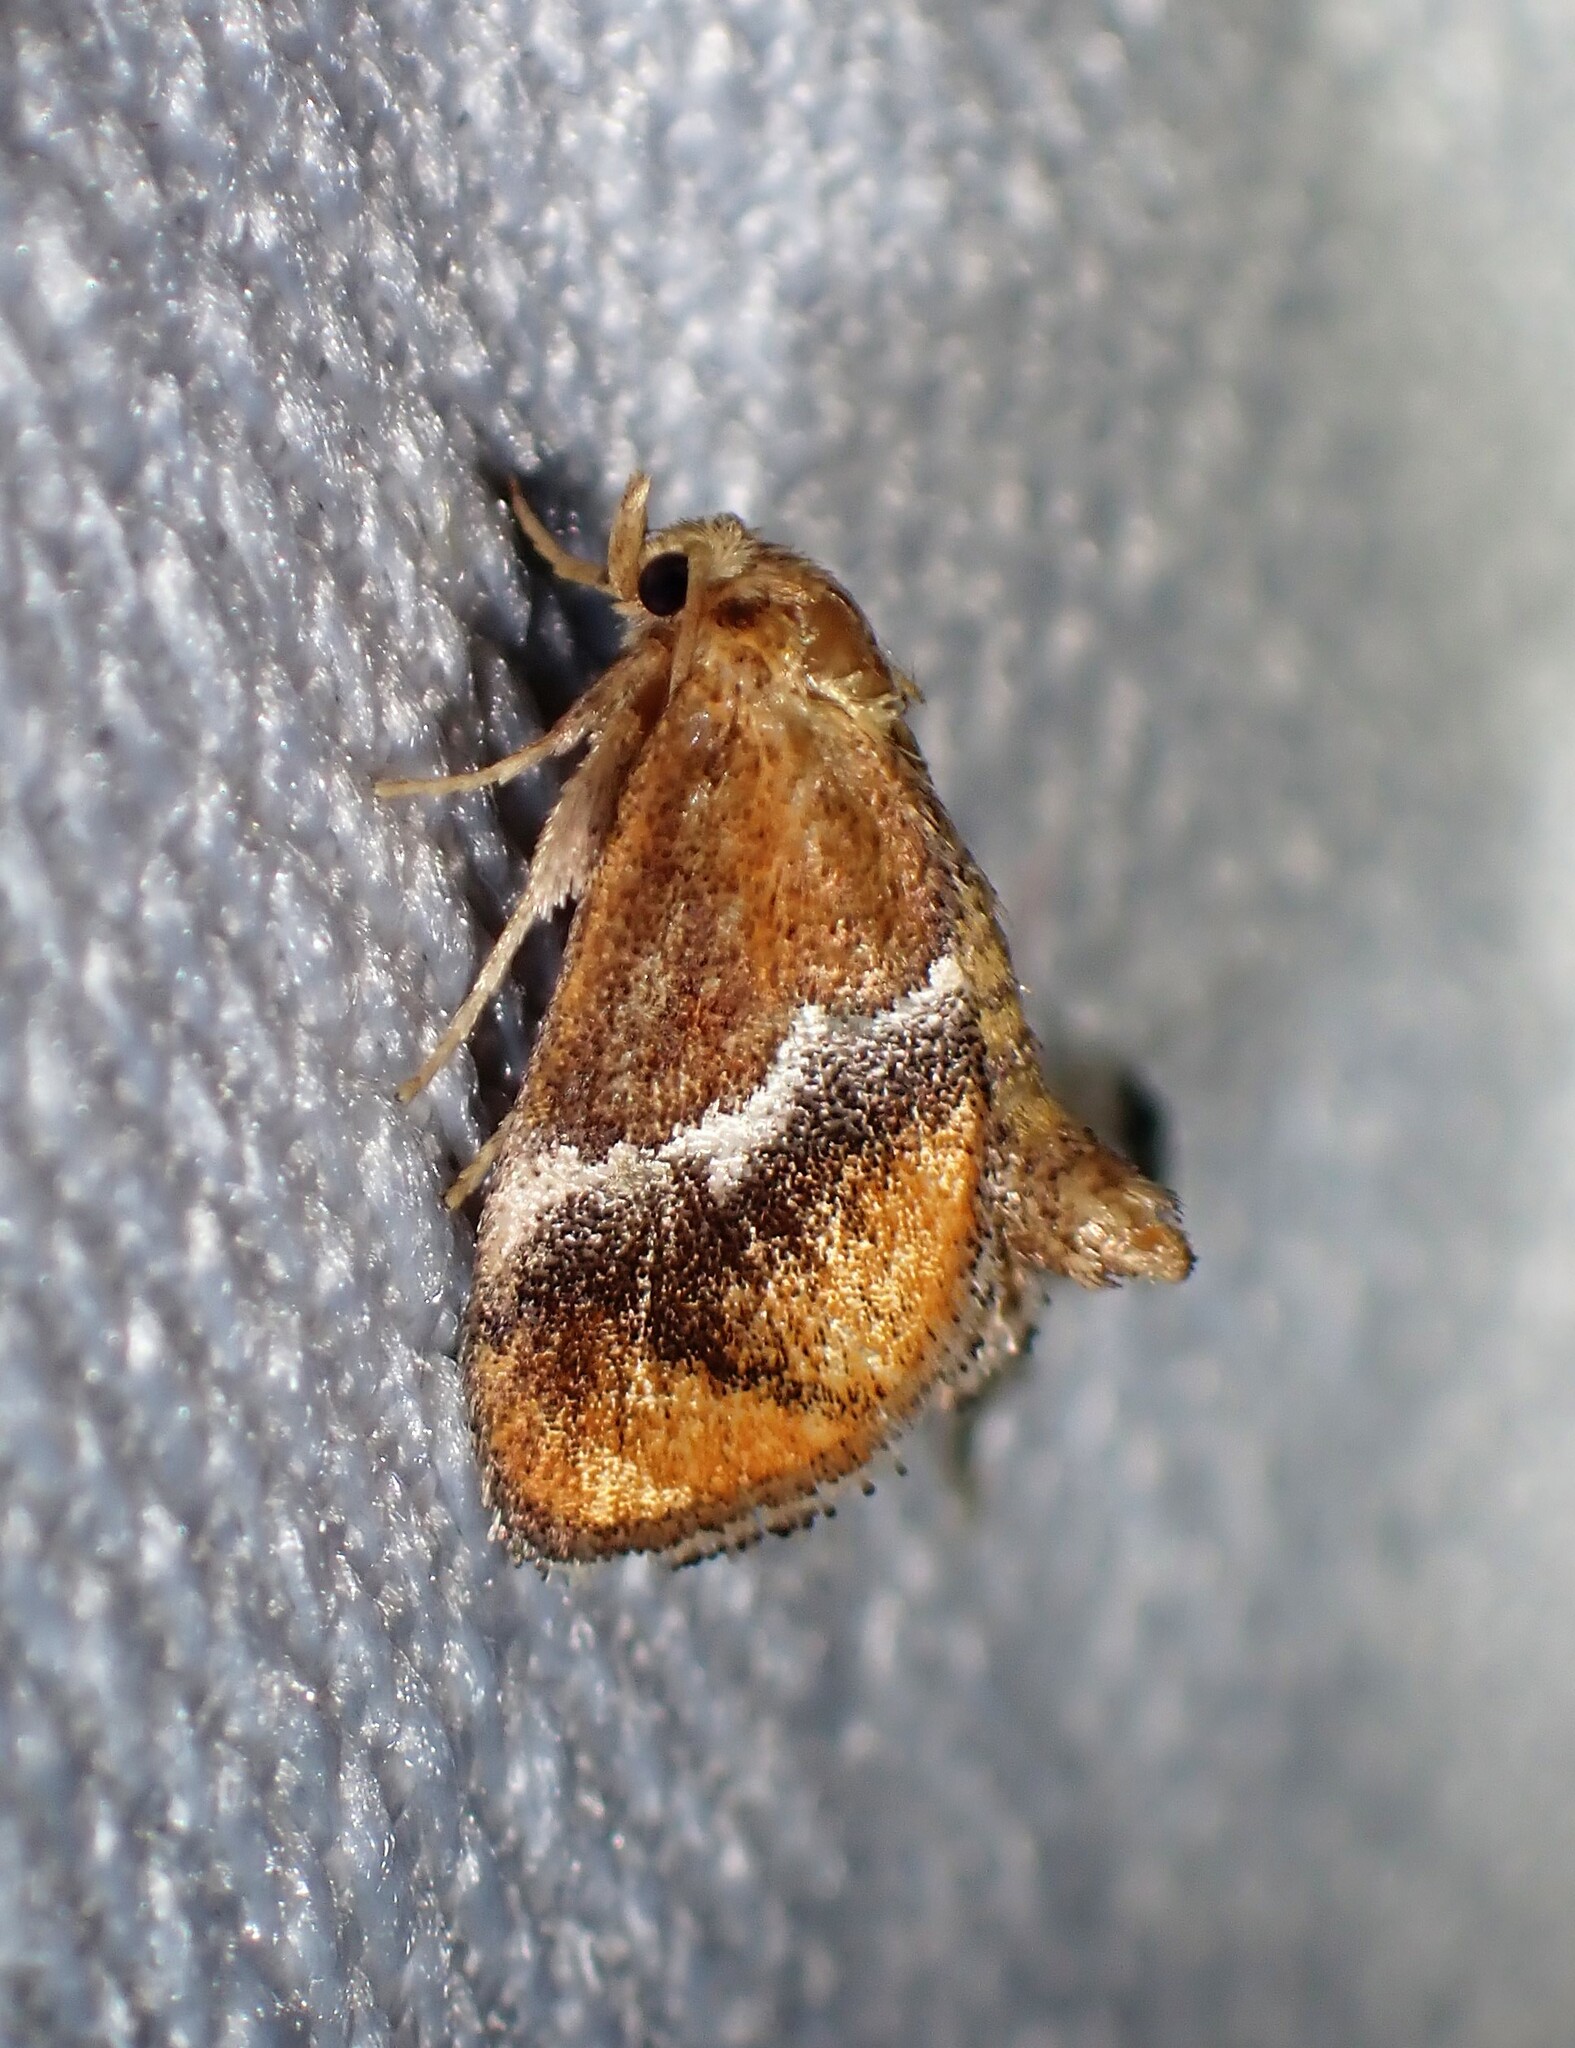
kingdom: Animalia
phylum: Arthropoda
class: Insecta
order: Lepidoptera
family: Limacodidae
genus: Lithacodes
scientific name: Lithacodes fasciola
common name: Yellow-shouldered slug moth
